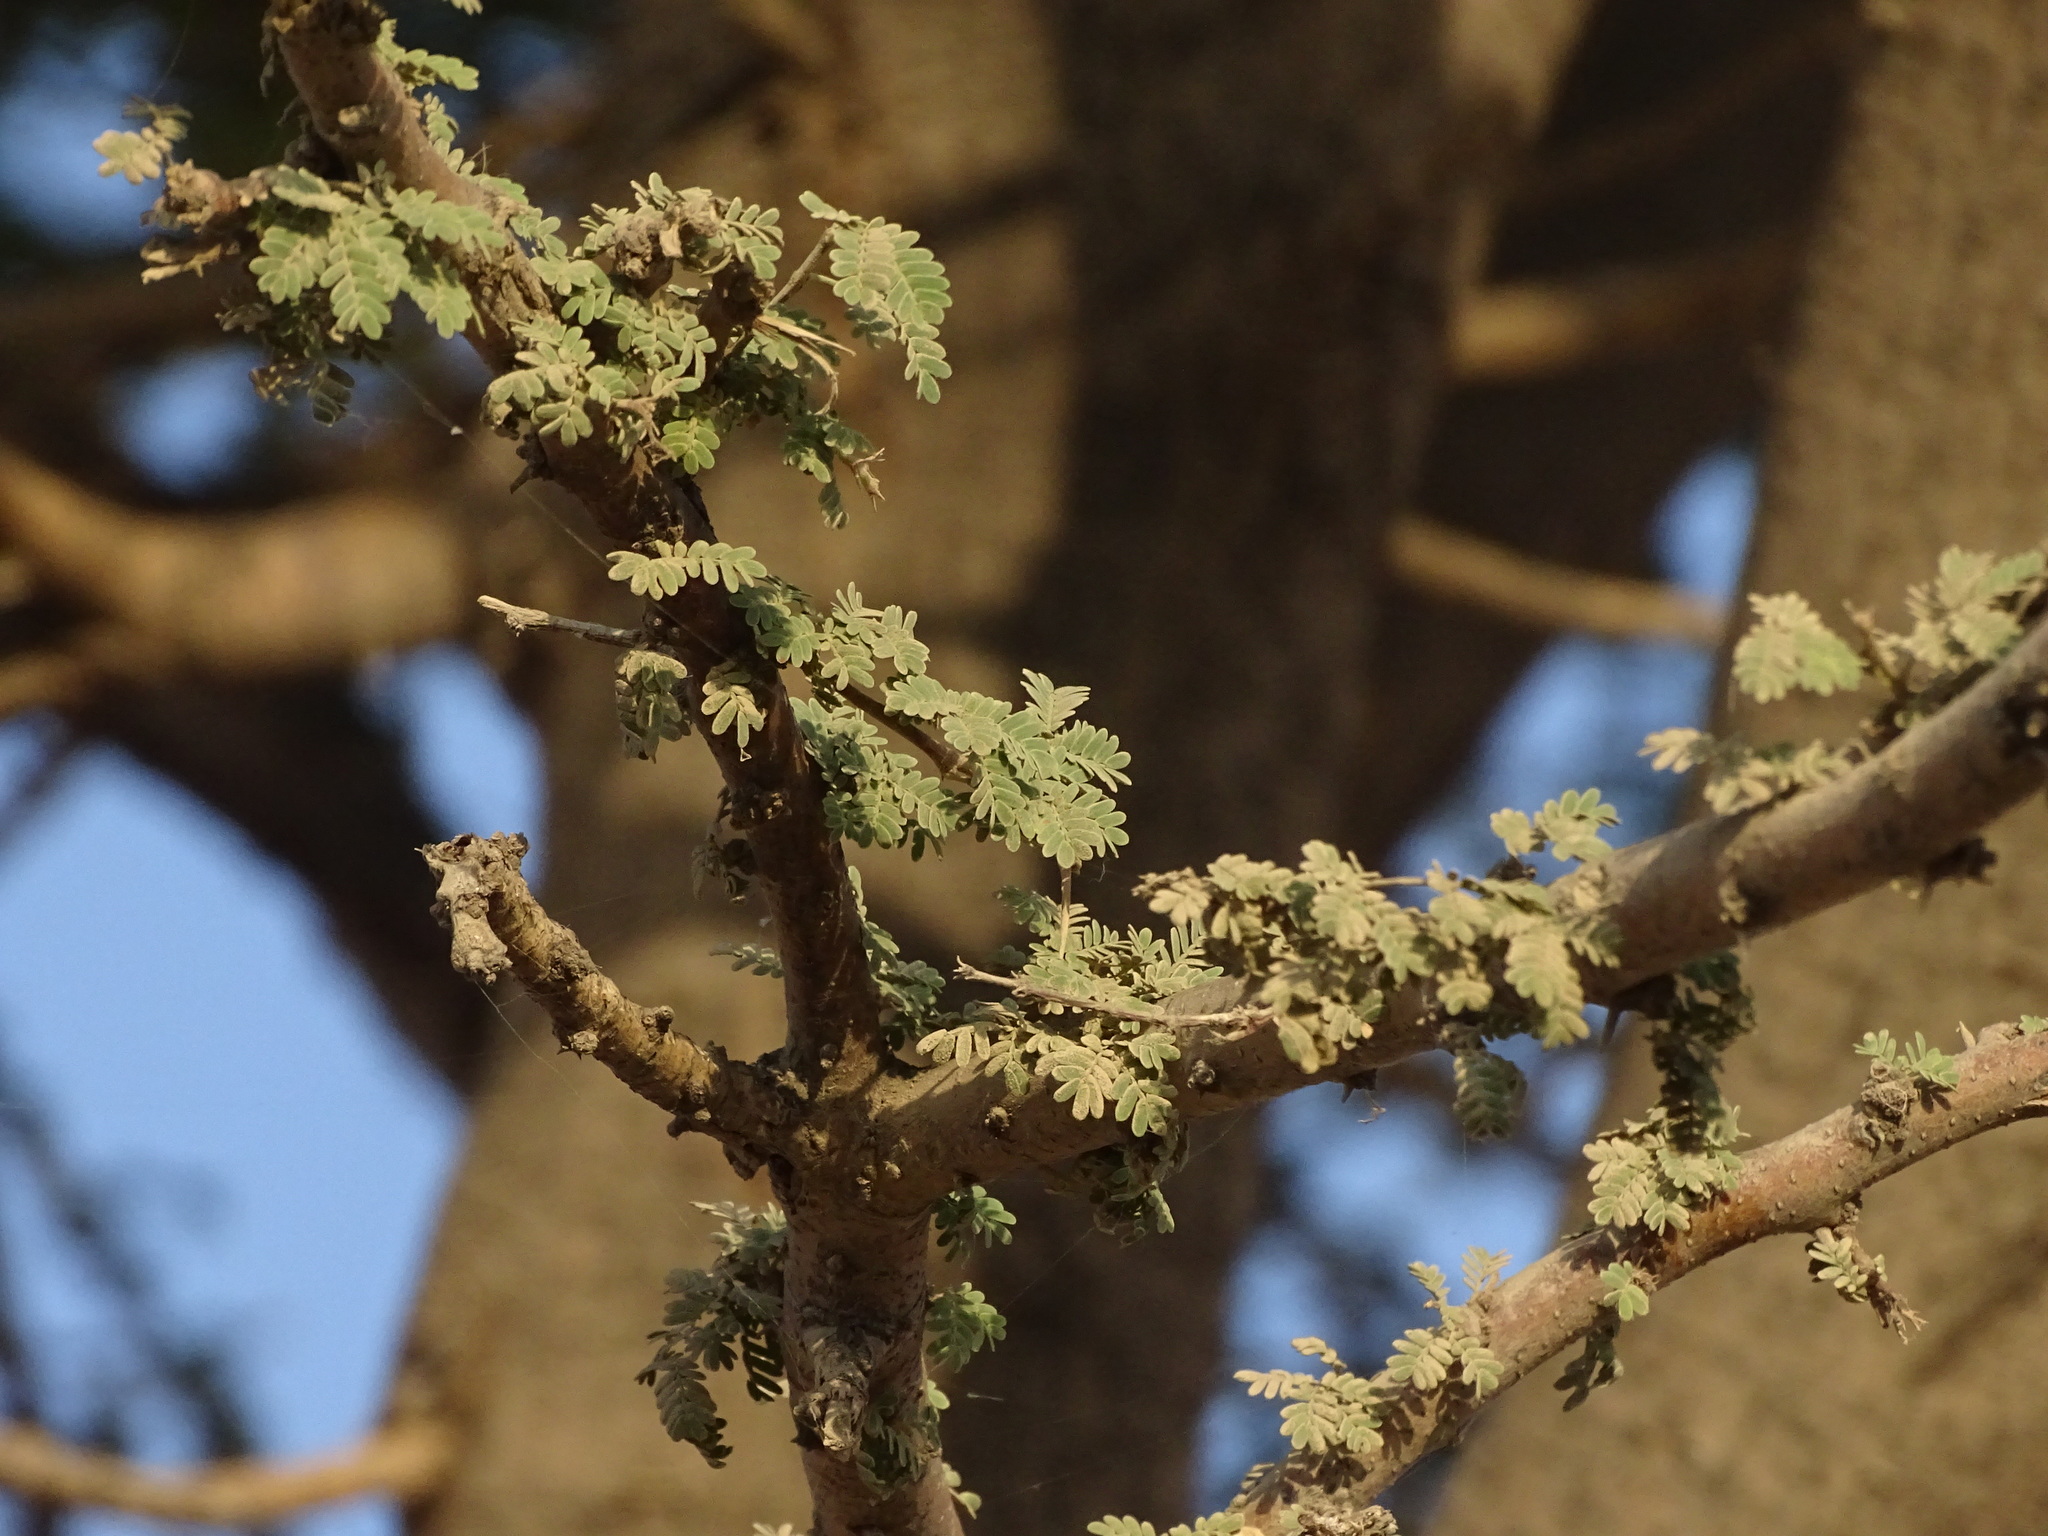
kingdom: Plantae
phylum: Tracheophyta
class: Magnoliopsida
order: Fabales
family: Fabaceae
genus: Vachellia
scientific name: Vachellia tortilis
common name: Umbrella thorn acacia
